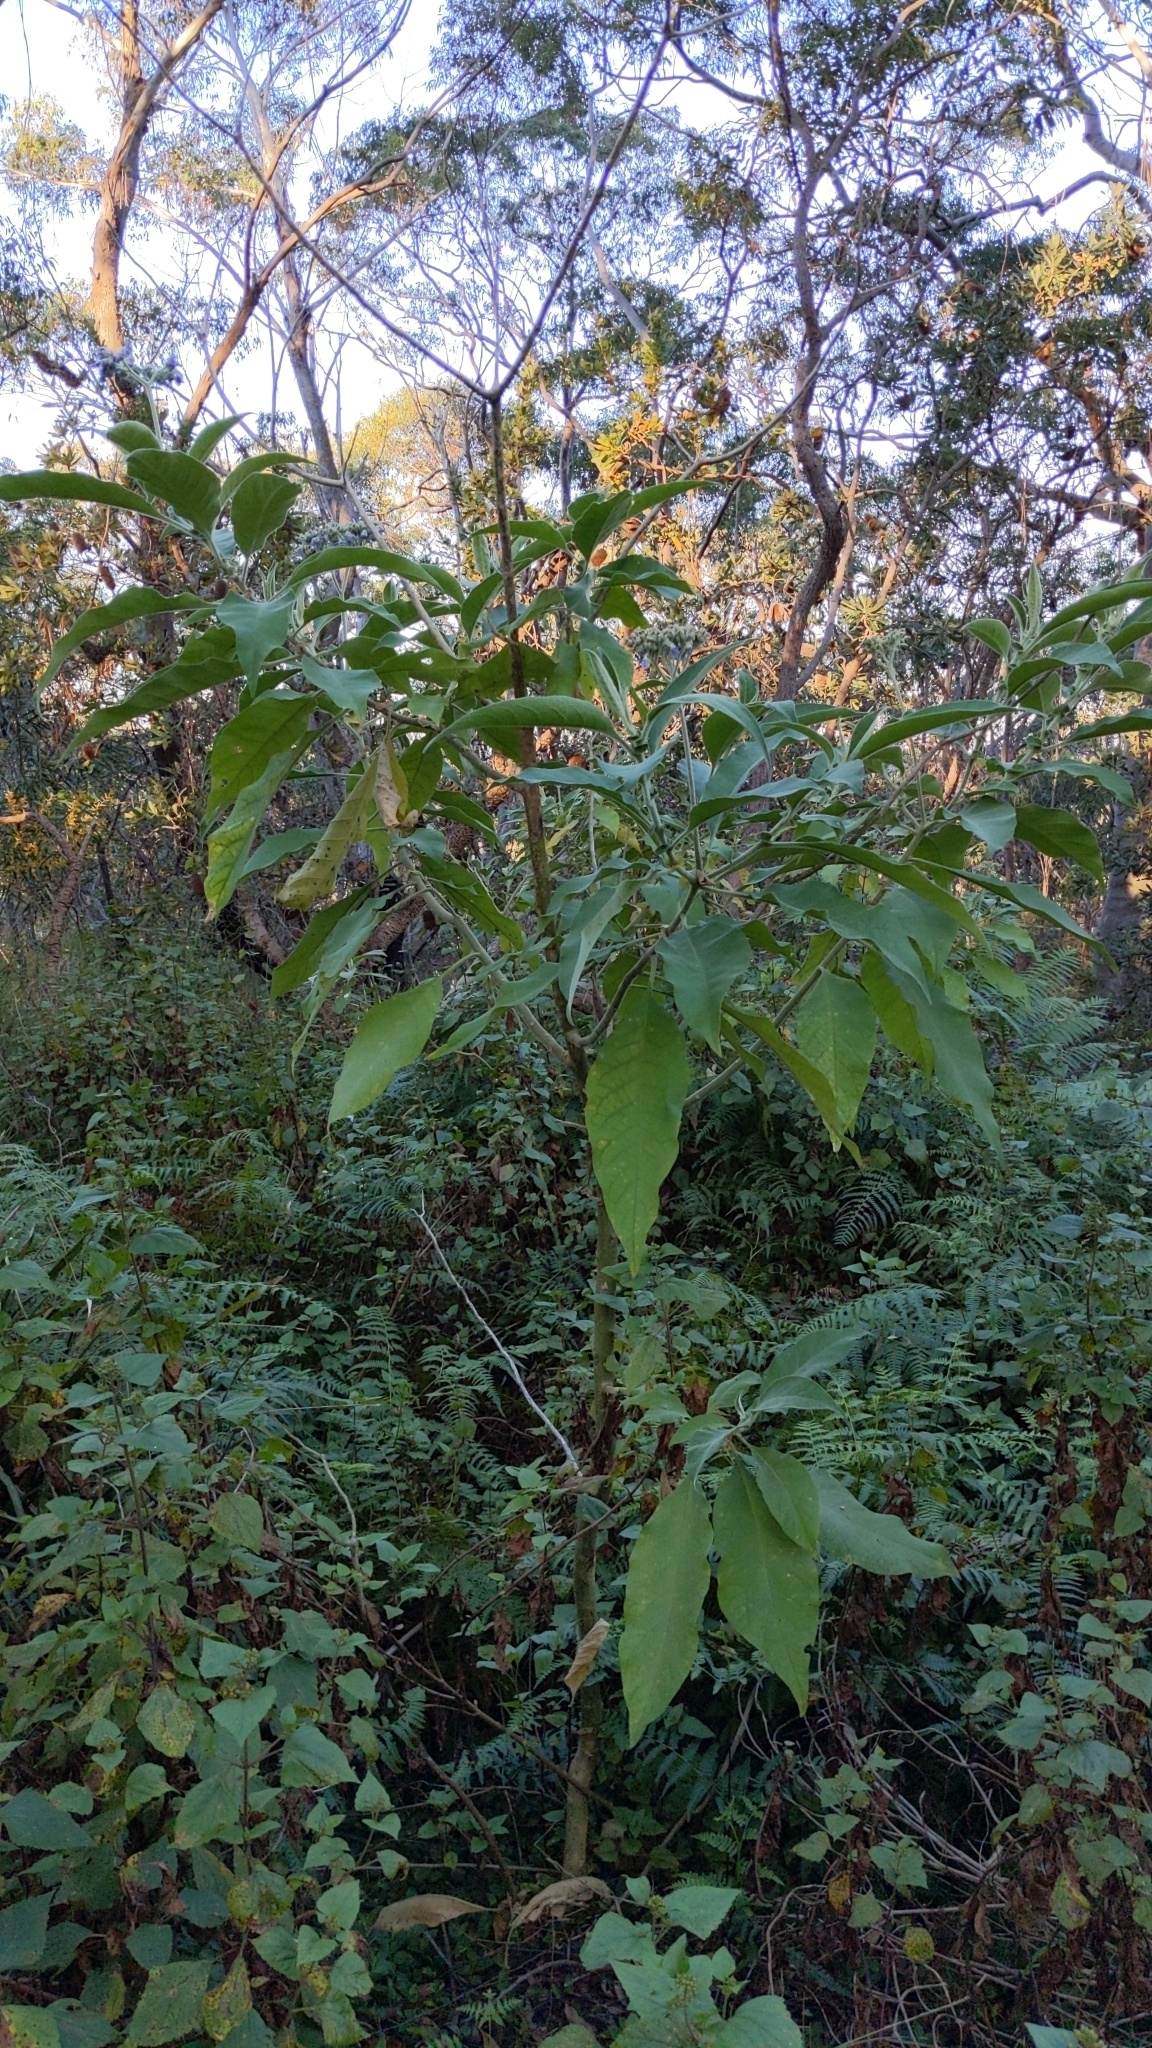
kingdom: Plantae
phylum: Tracheophyta
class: Magnoliopsida
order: Solanales
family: Solanaceae
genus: Solanum
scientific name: Solanum mauritianum
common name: Earleaf nightshade
